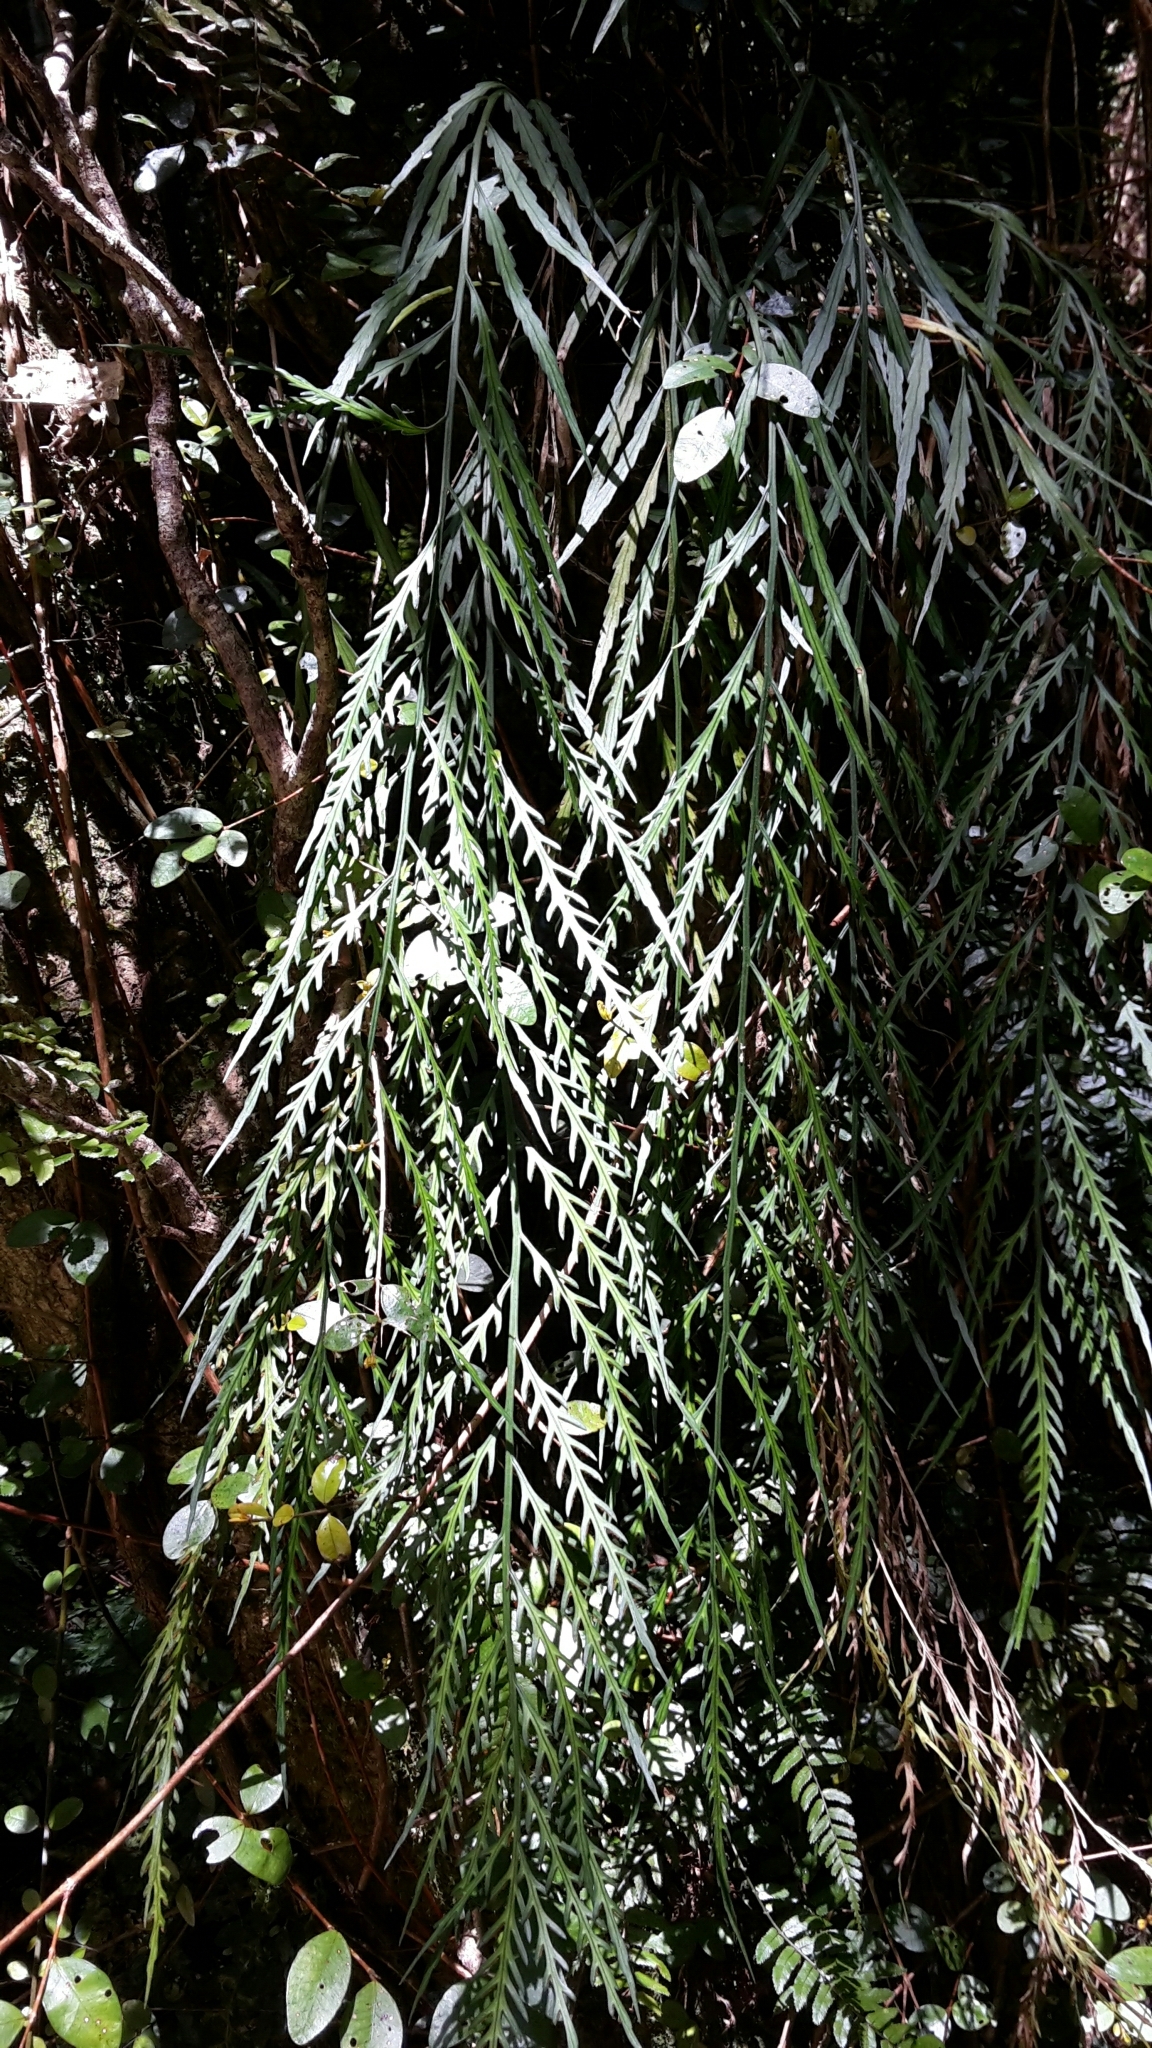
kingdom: Plantae
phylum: Tracheophyta
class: Polypodiopsida
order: Polypodiales
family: Aspleniaceae
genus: Asplenium
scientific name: Asplenium flaccidum
